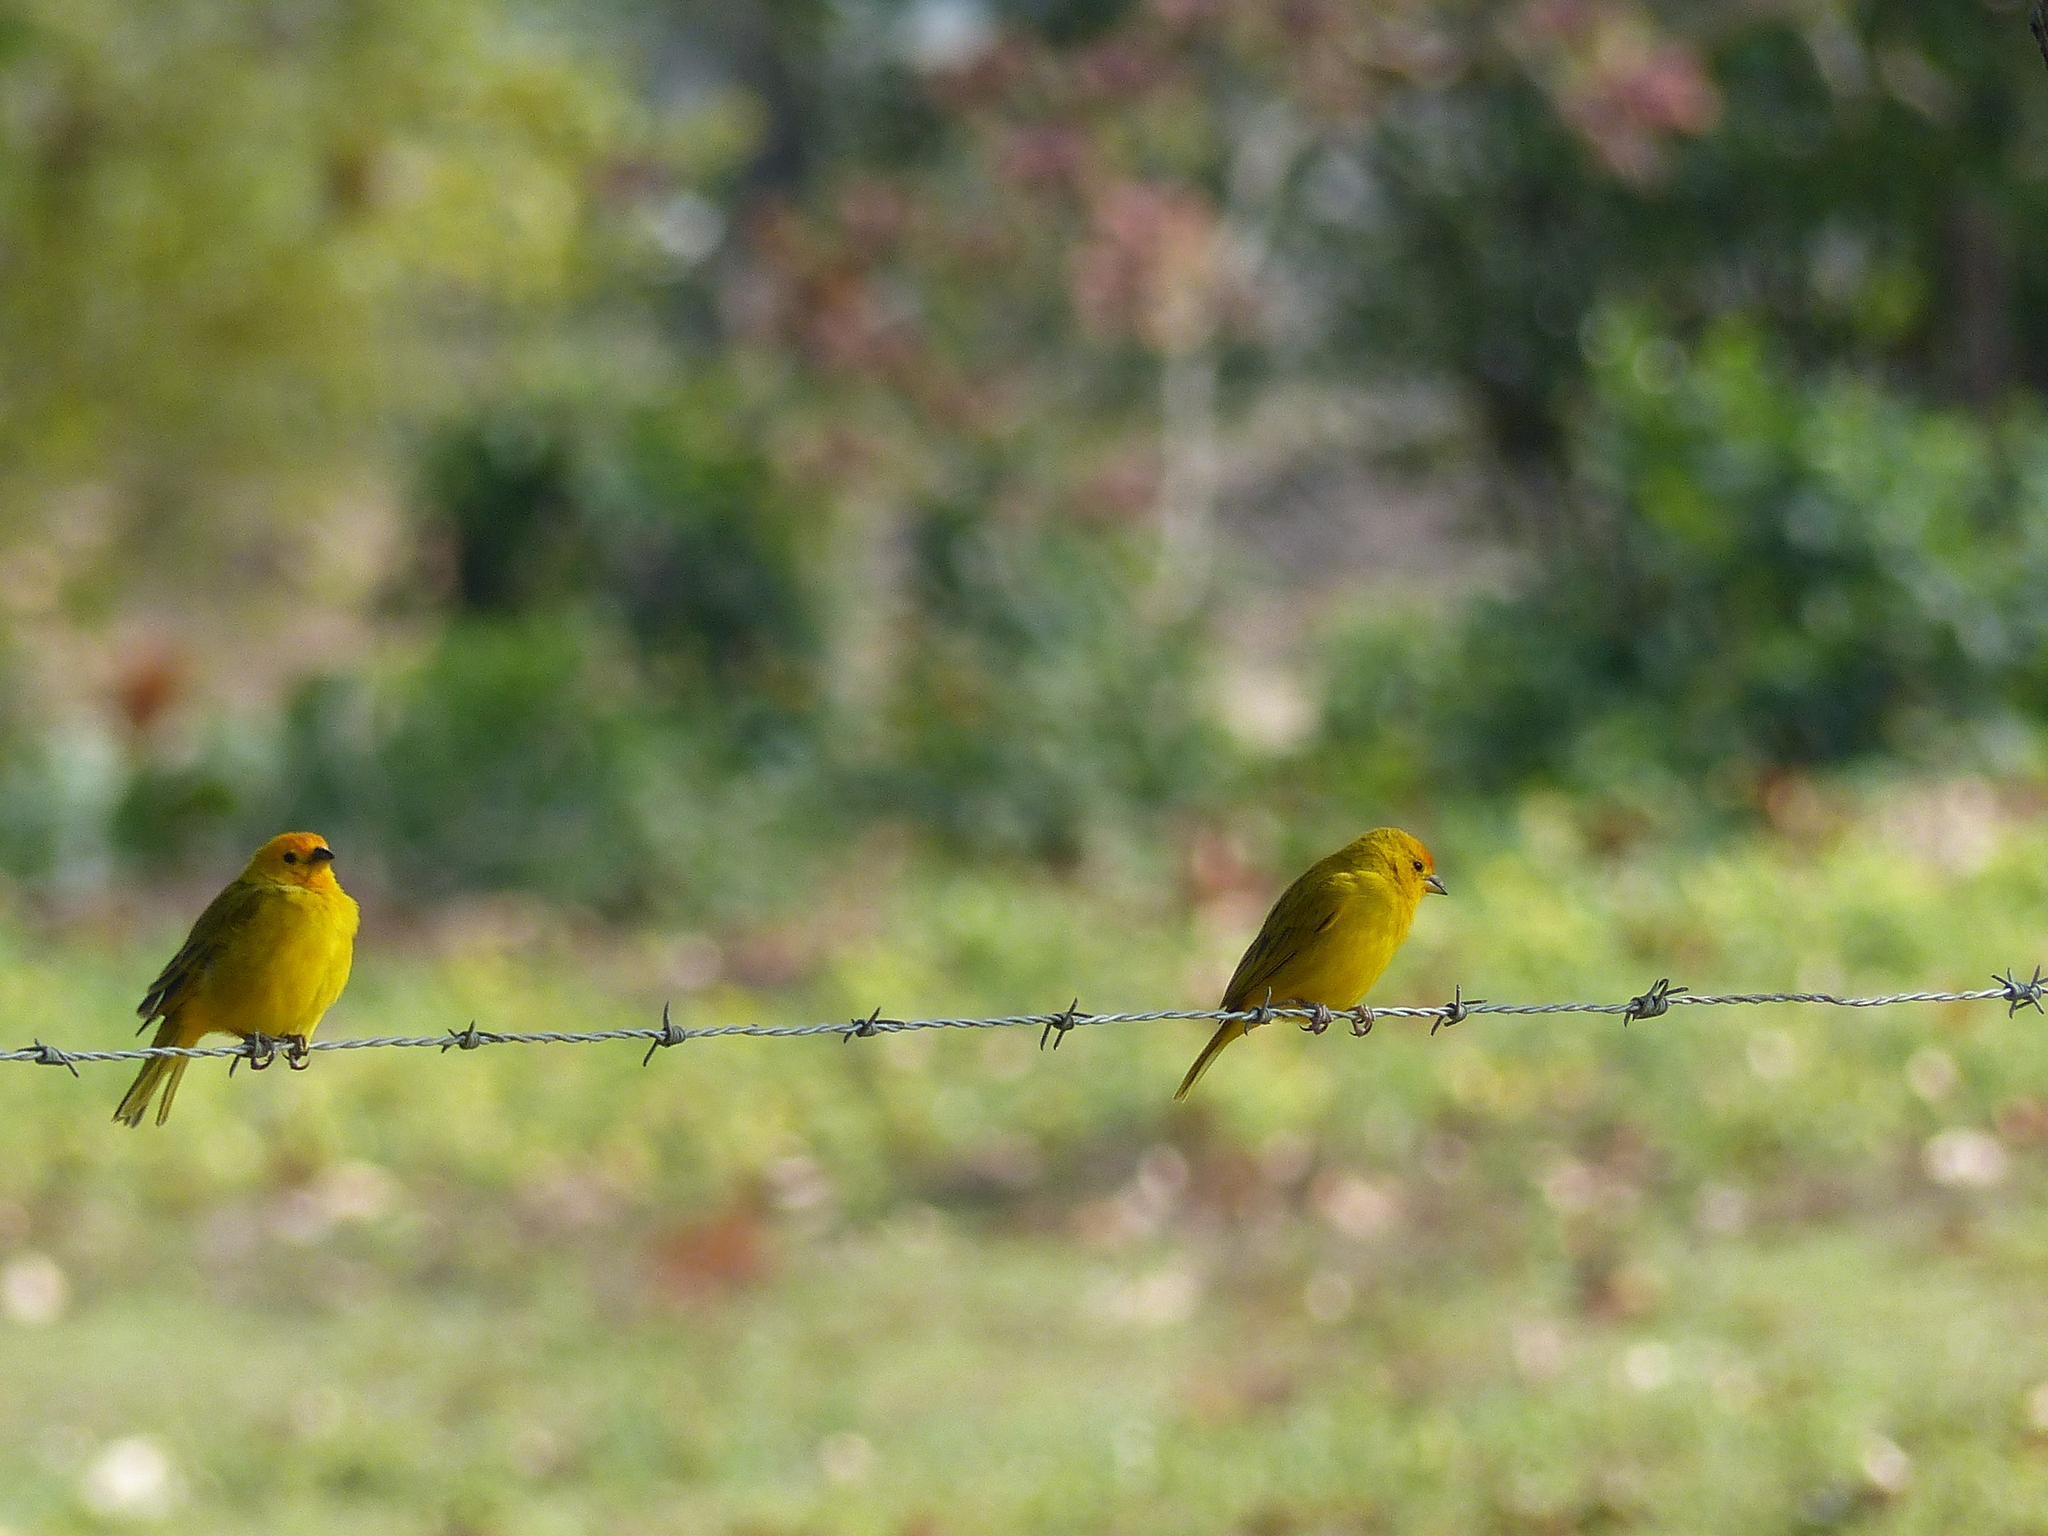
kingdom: Animalia
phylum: Chordata
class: Aves
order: Passeriformes
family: Thraupidae
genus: Sicalis
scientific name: Sicalis flaveola
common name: Saffron finch
